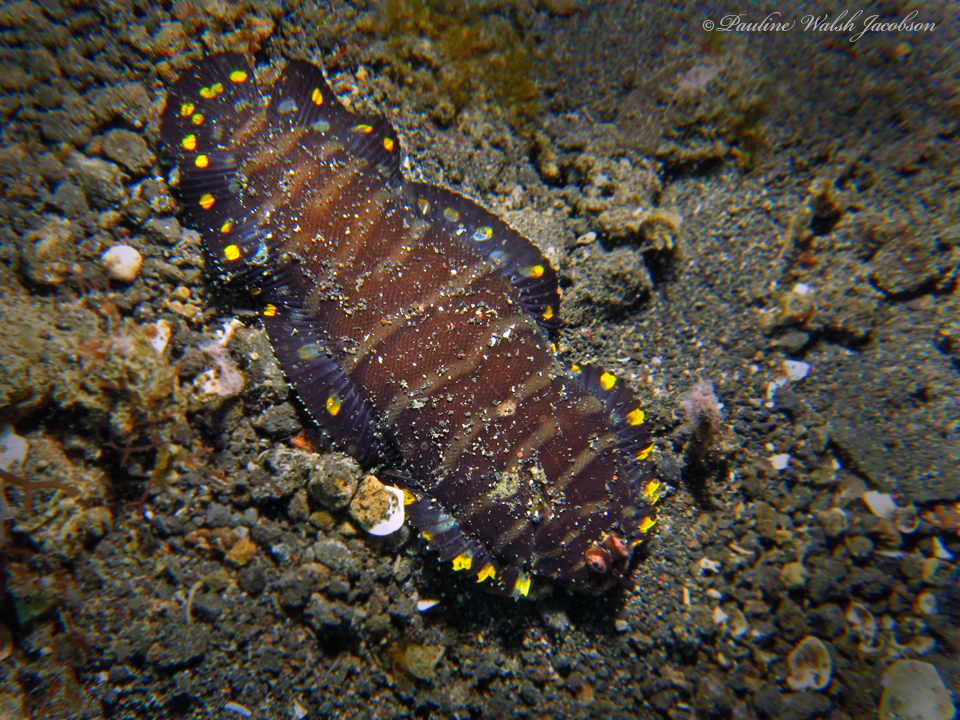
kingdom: Animalia
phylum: Chordata
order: Pleuronectiformes
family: Soleidae
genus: Soleichthys
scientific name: Soleichthys siammakuti
